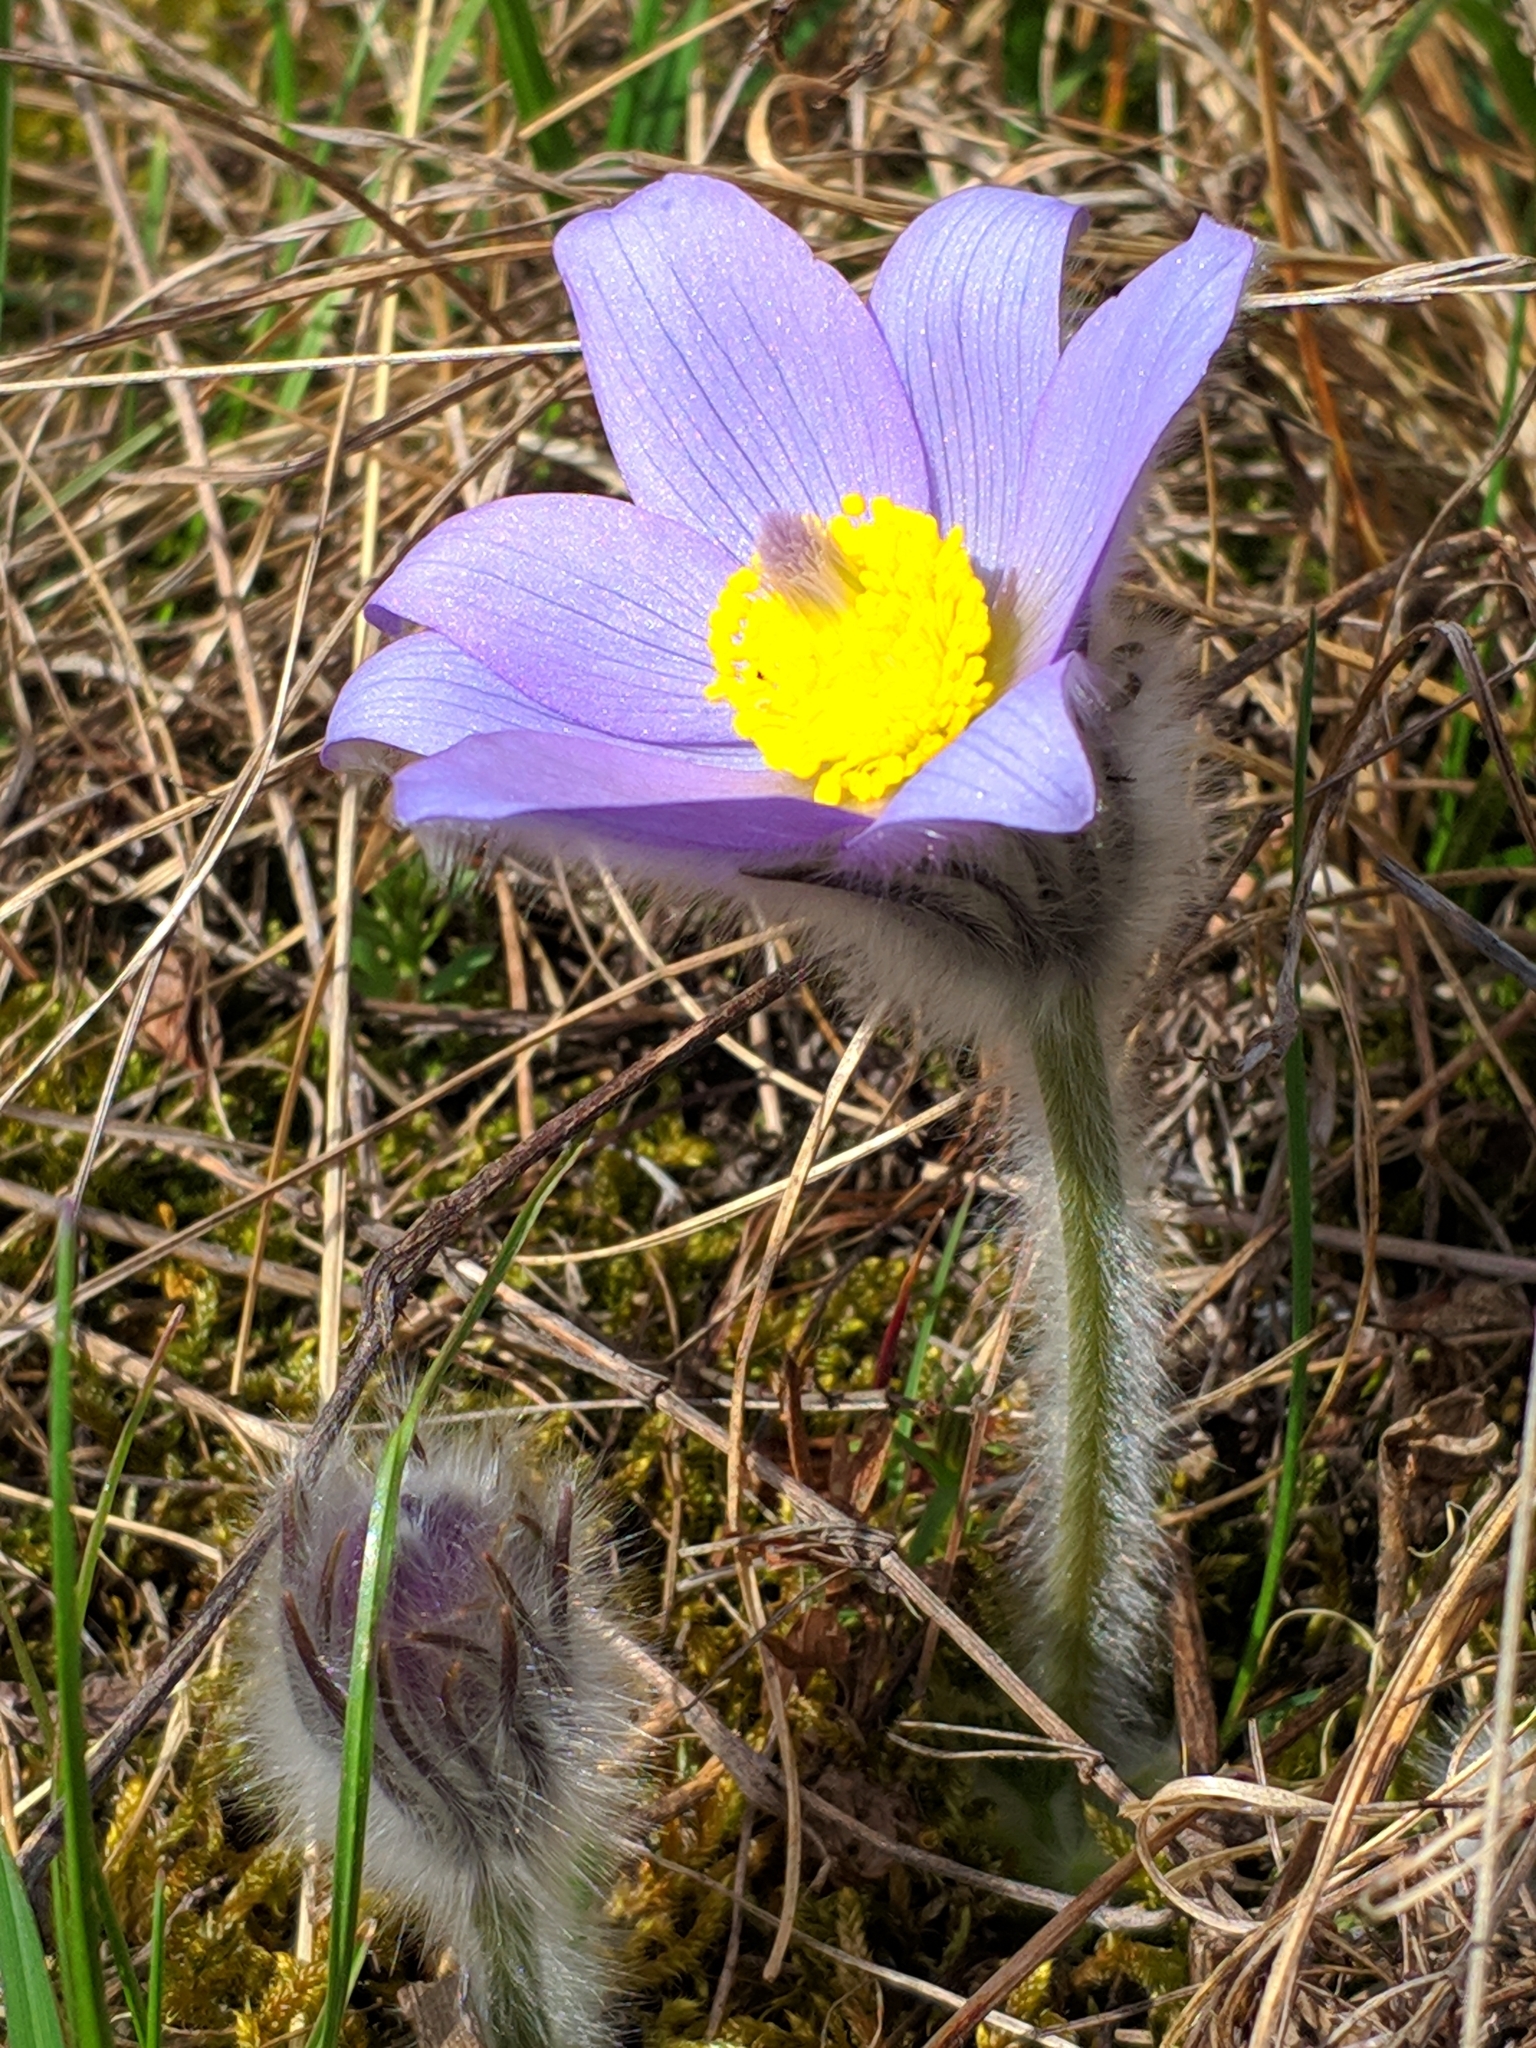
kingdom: Plantae
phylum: Tracheophyta
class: Magnoliopsida
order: Ranunculales
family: Ranunculaceae
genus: Pulsatilla
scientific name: Pulsatilla grandis
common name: Greater pasque flower
